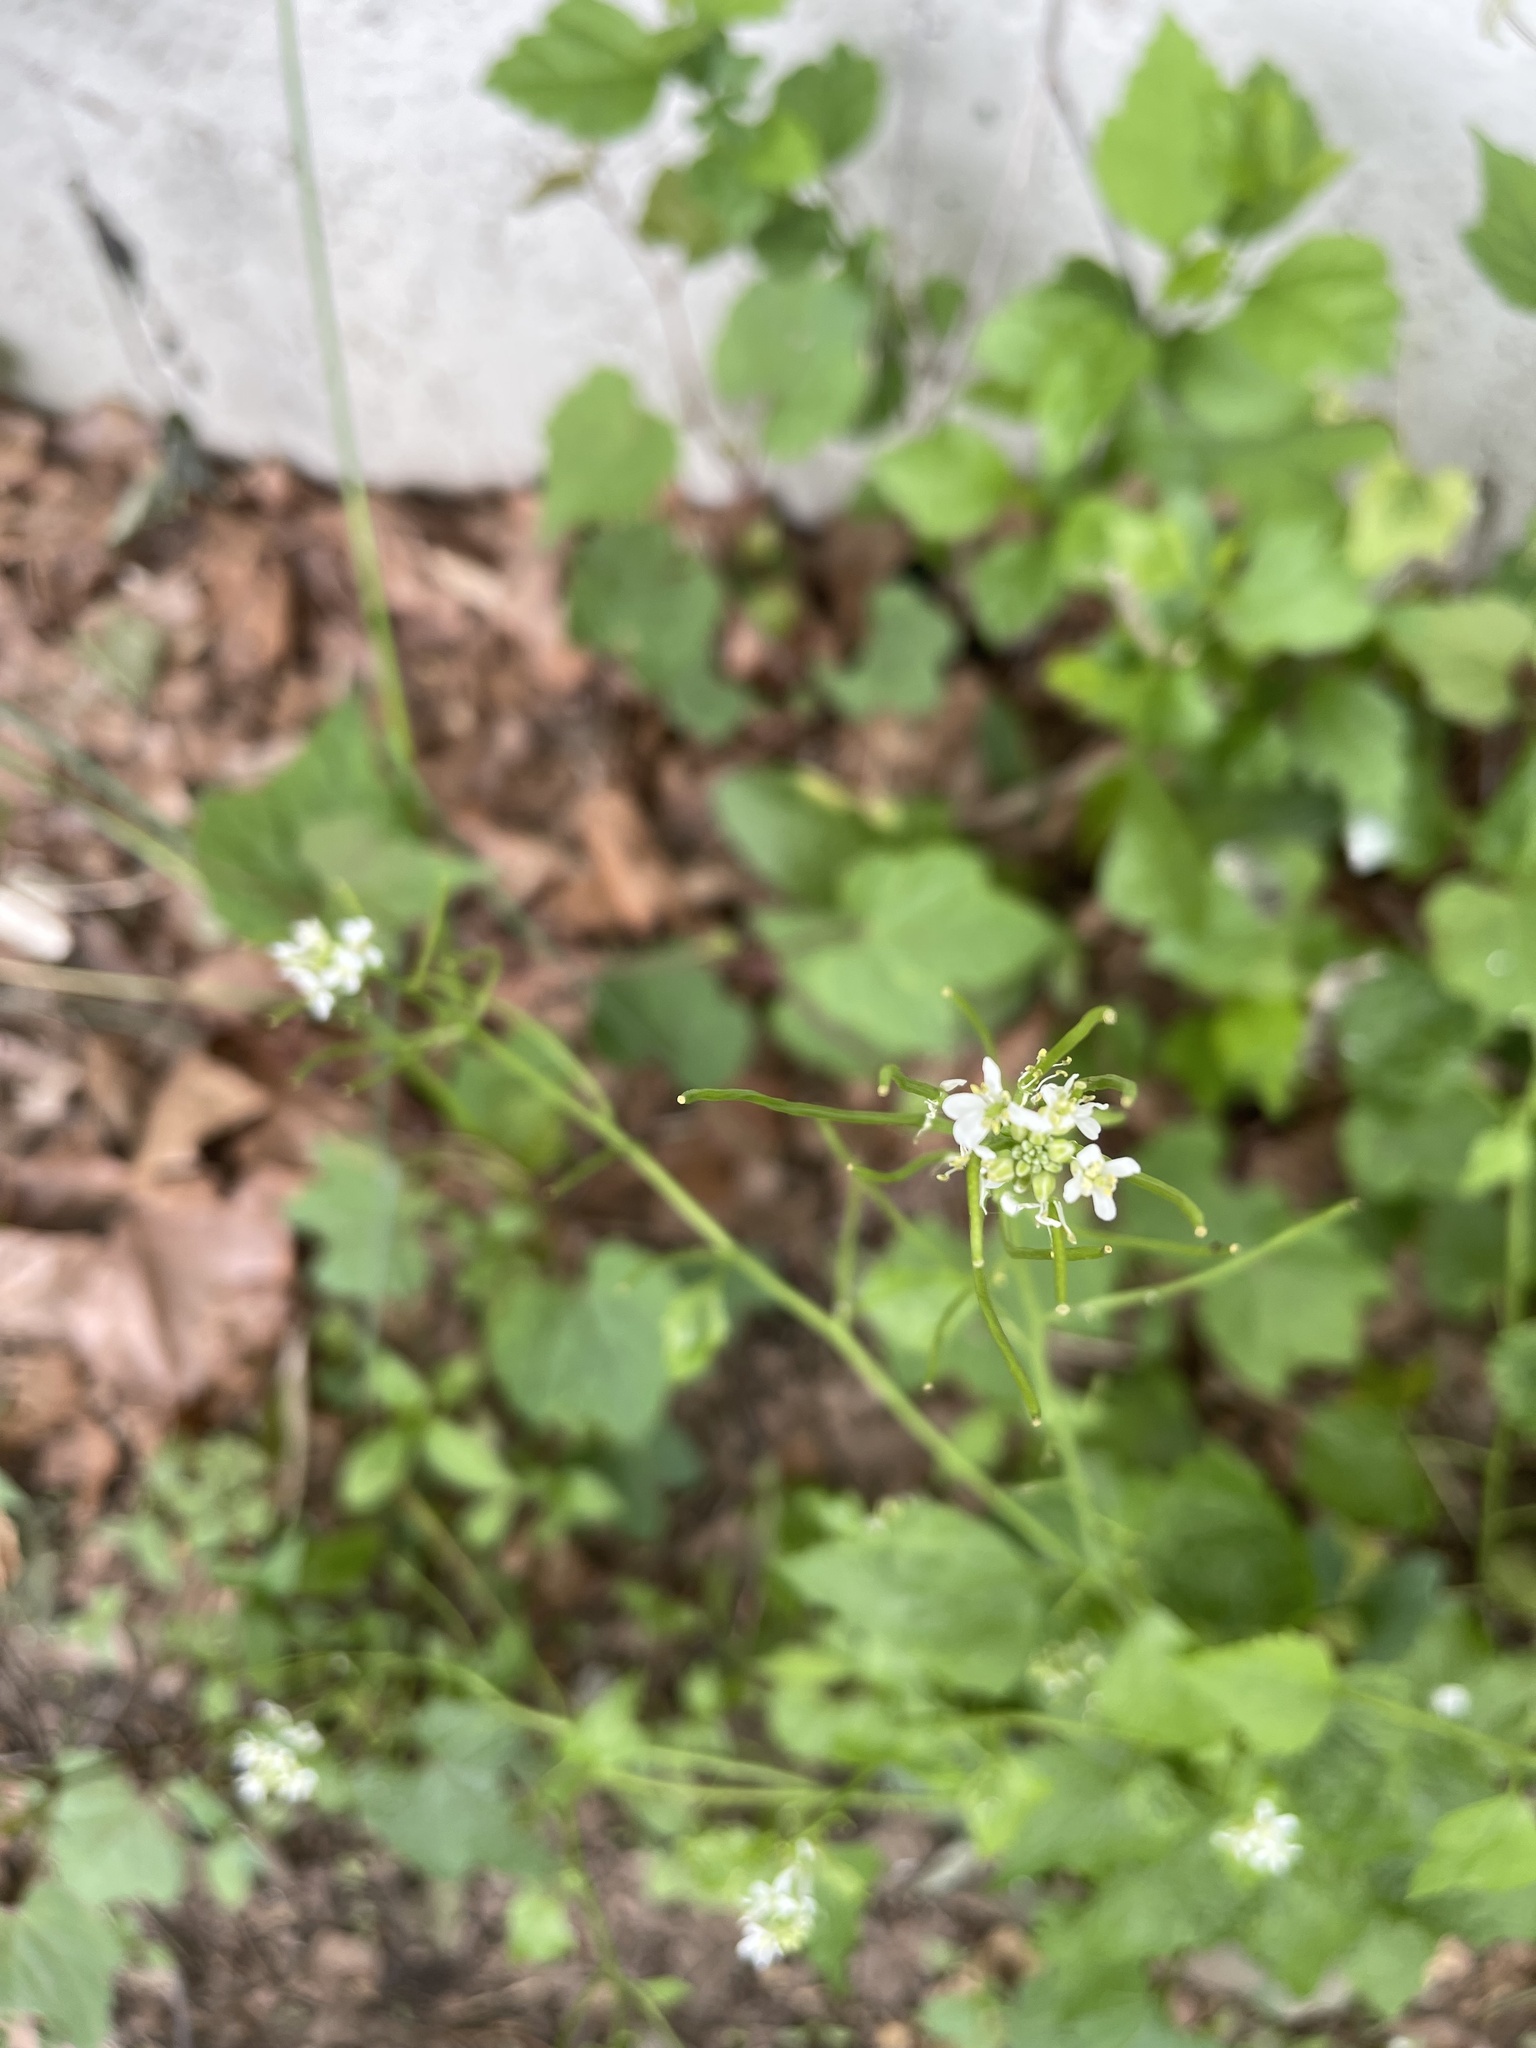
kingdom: Plantae
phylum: Tracheophyta
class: Magnoliopsida
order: Brassicales
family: Brassicaceae
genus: Alliaria
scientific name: Alliaria petiolata
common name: Garlic mustard
